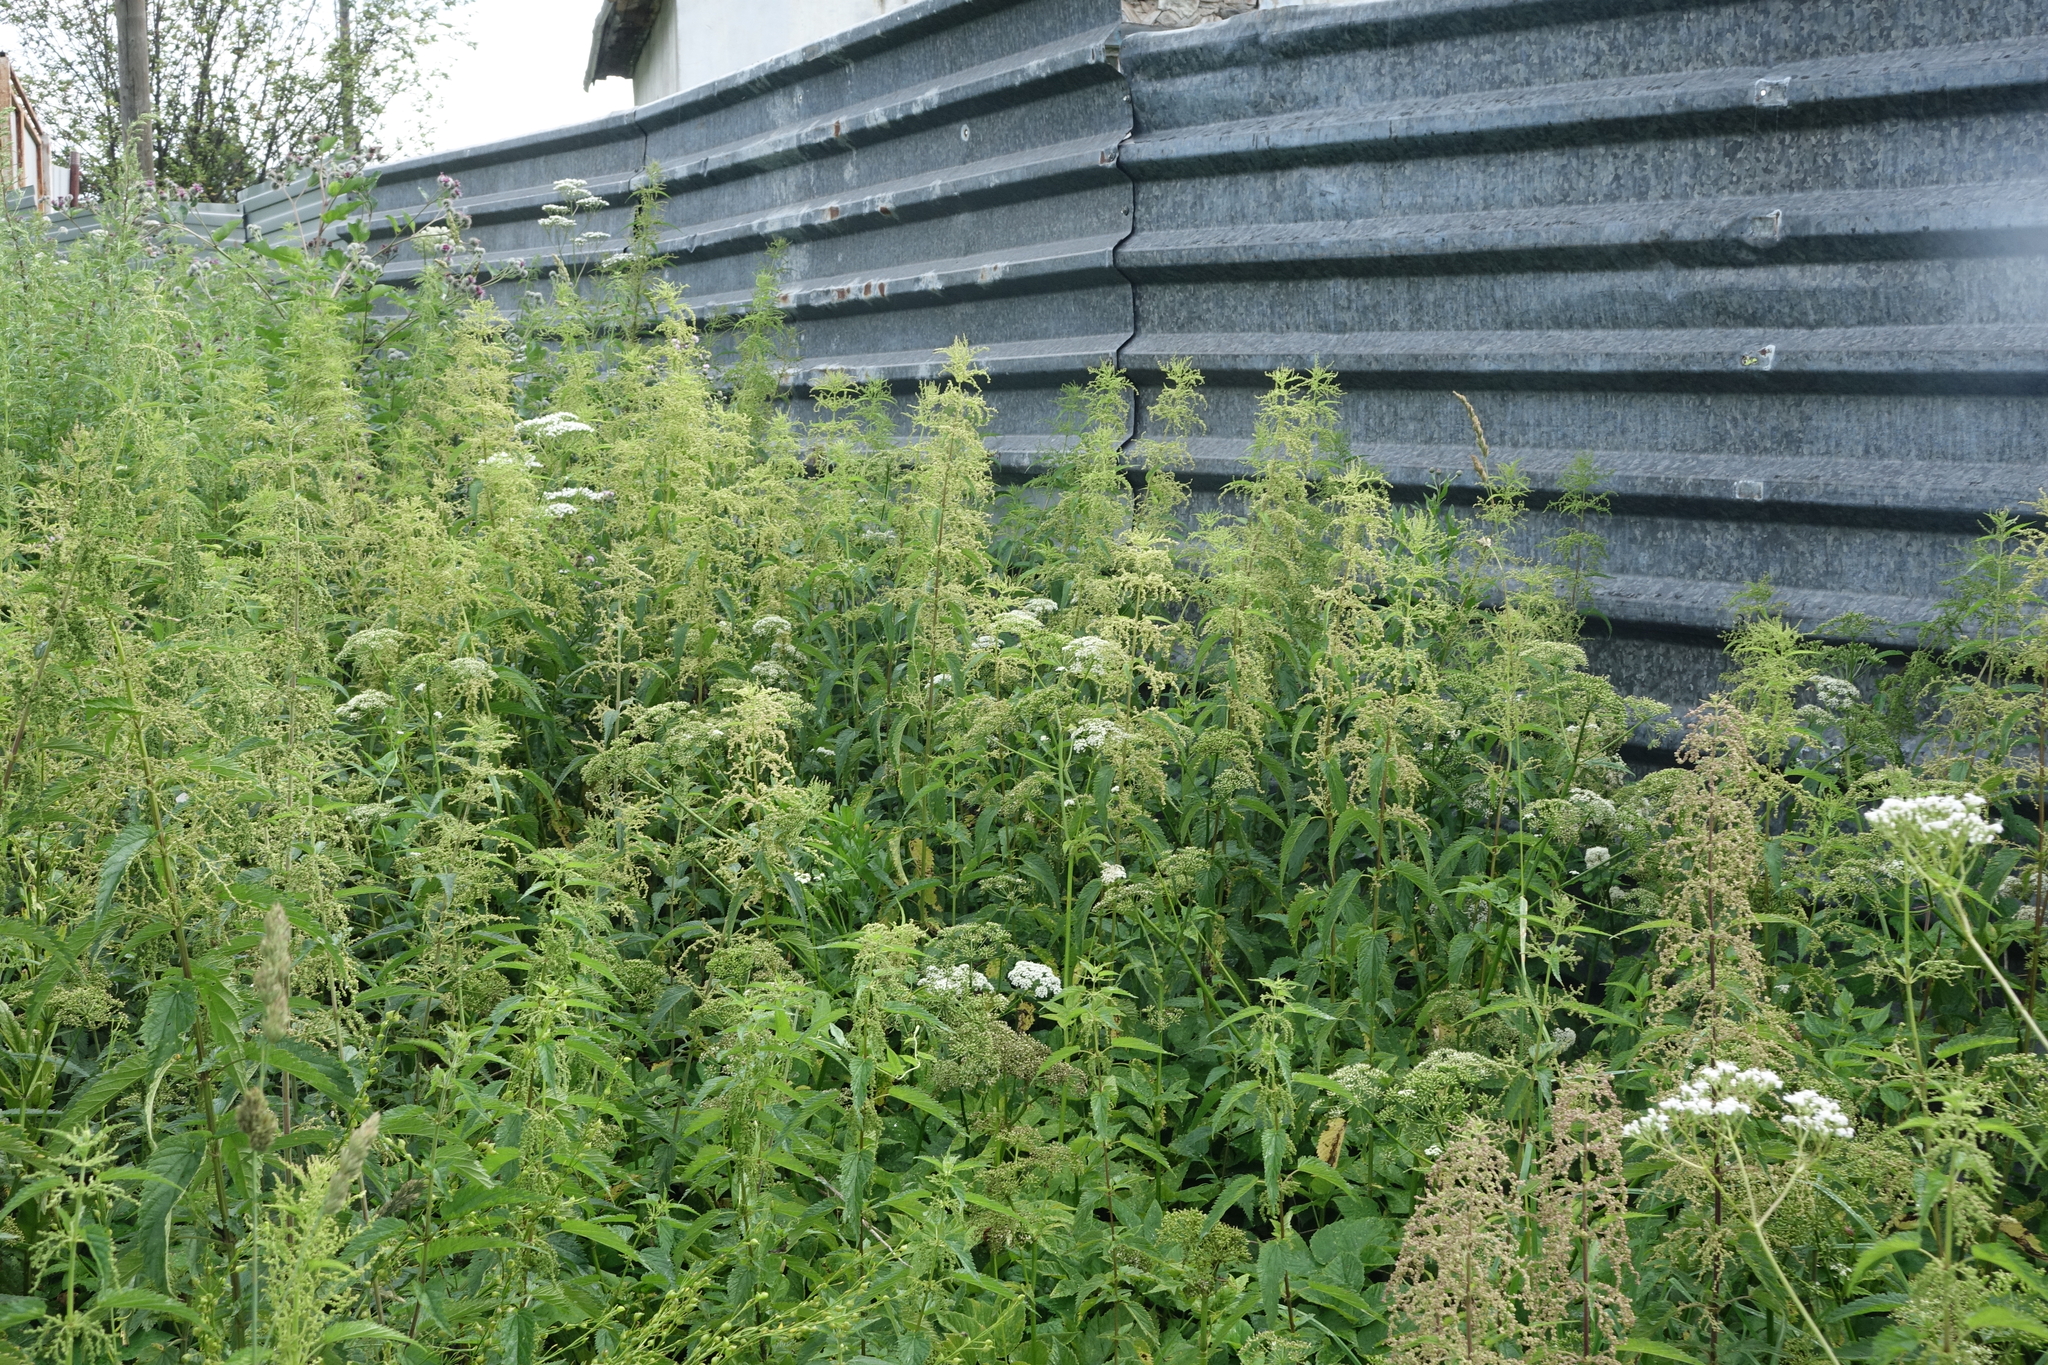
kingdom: Plantae
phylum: Tracheophyta
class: Magnoliopsida
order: Rosales
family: Urticaceae
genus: Urtica
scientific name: Urtica dioica
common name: Common nettle
